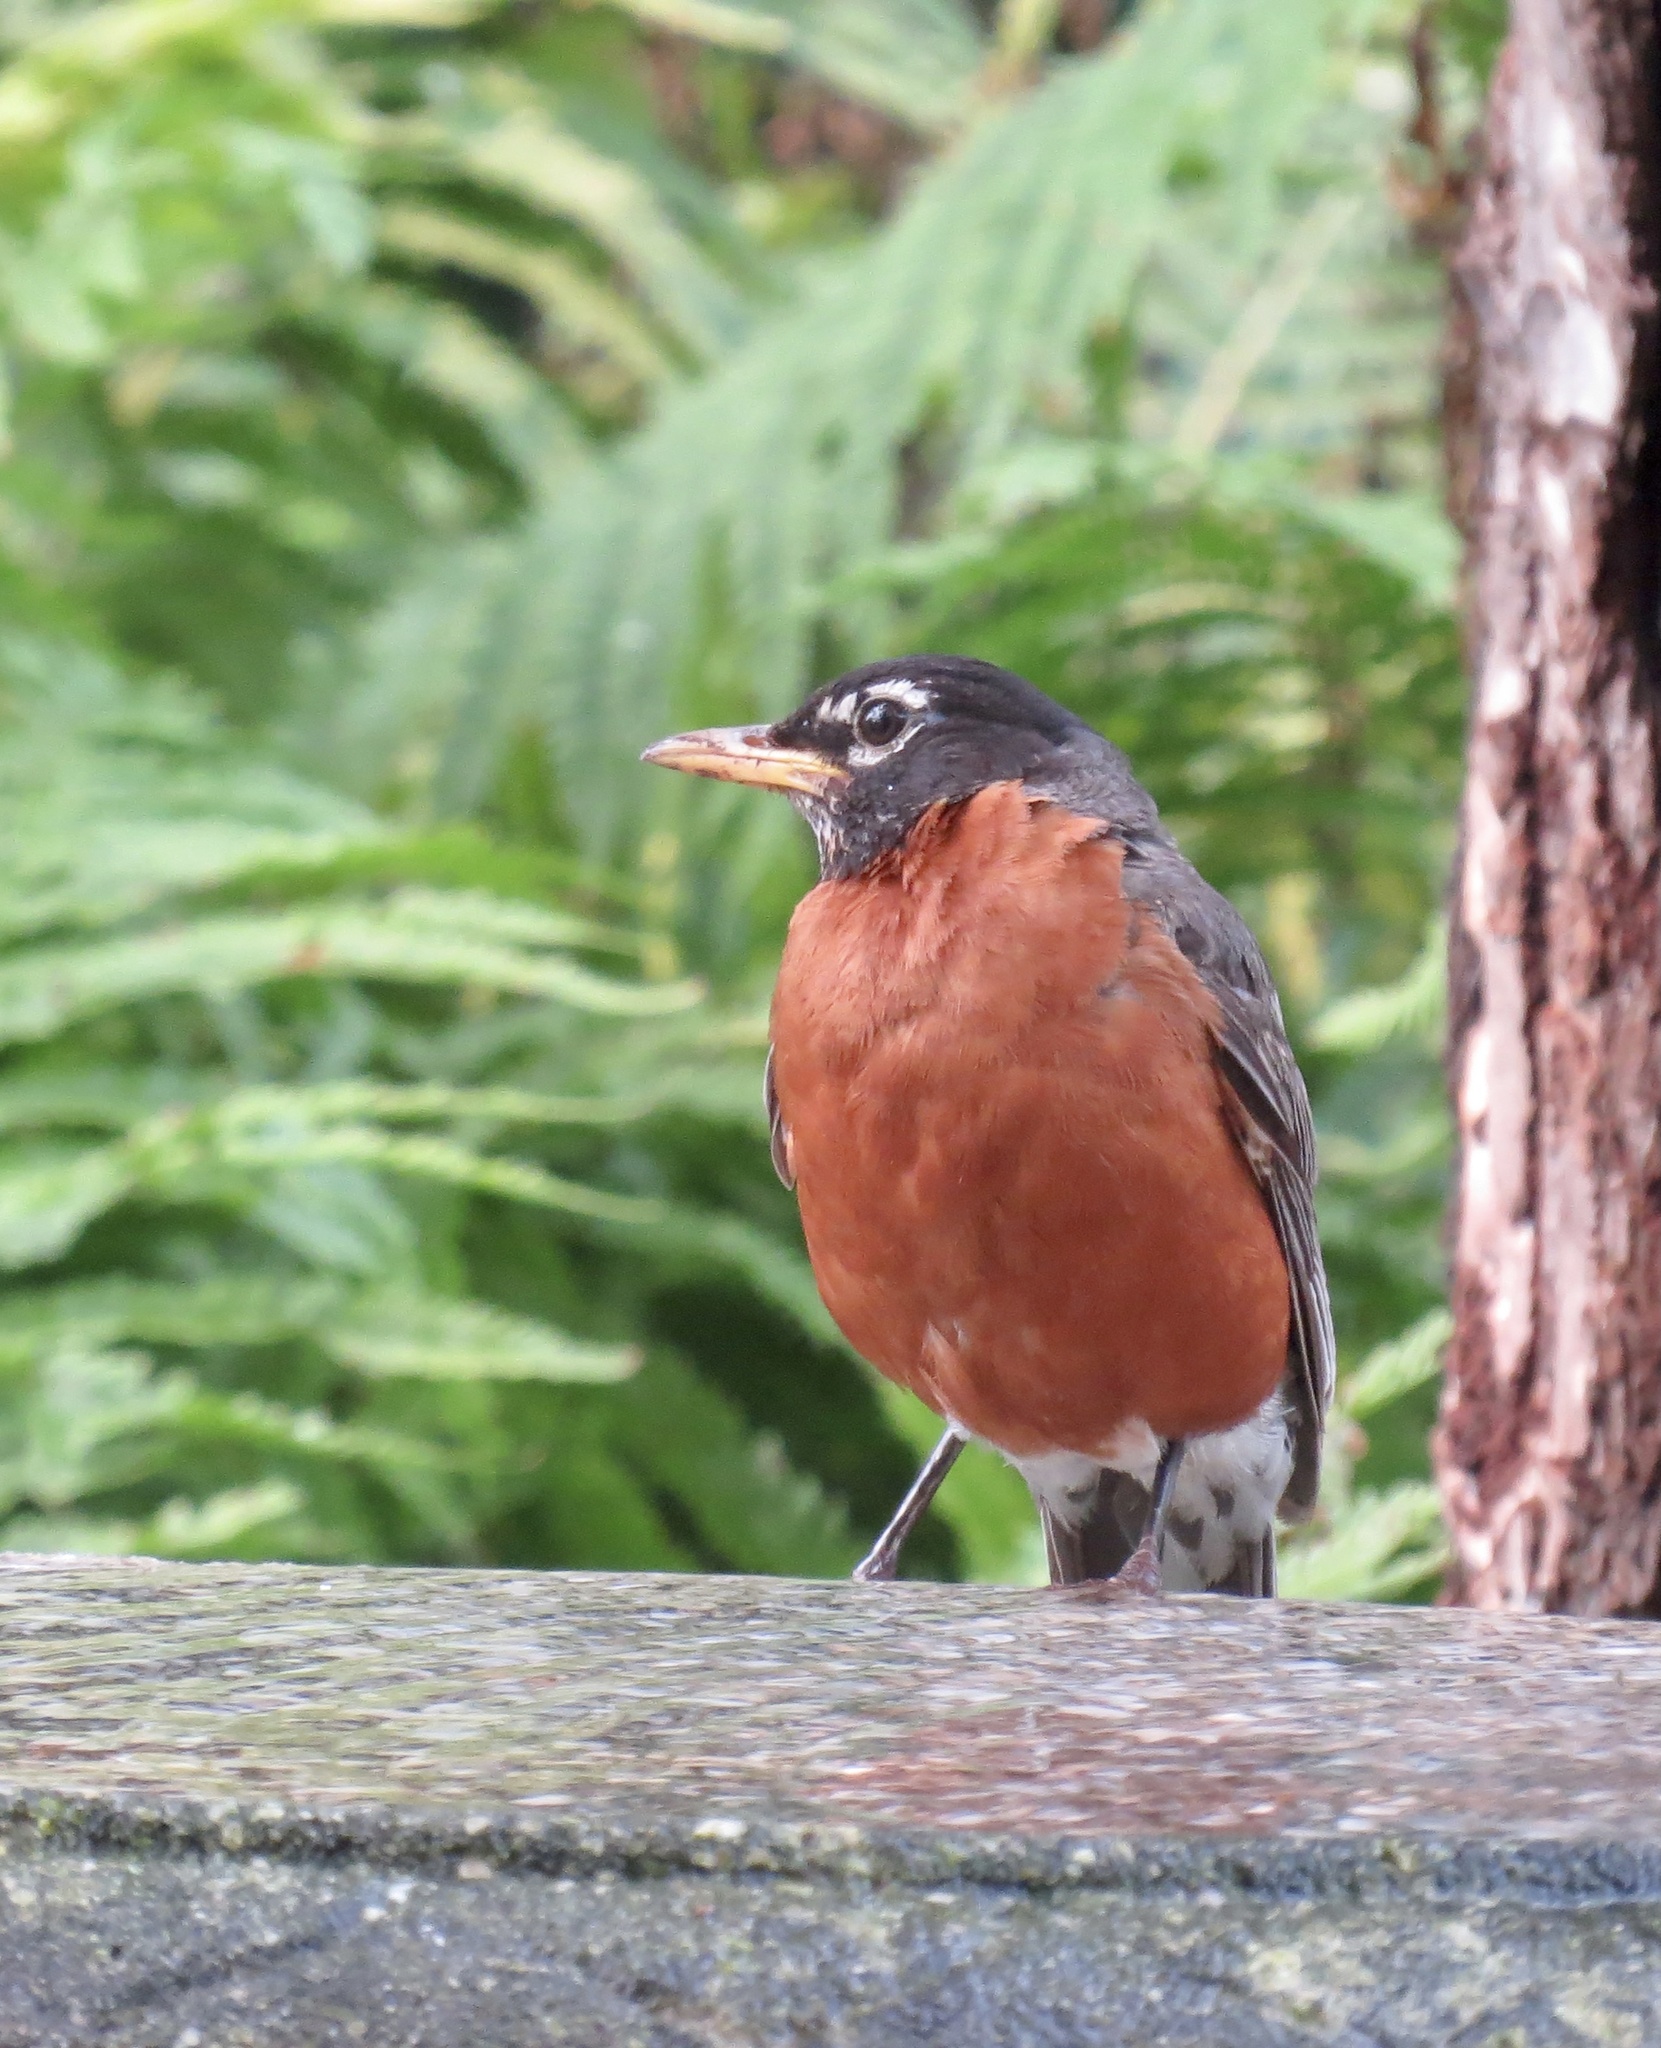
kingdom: Animalia
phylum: Chordata
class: Aves
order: Passeriformes
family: Turdidae
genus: Turdus
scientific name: Turdus migratorius
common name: American robin
